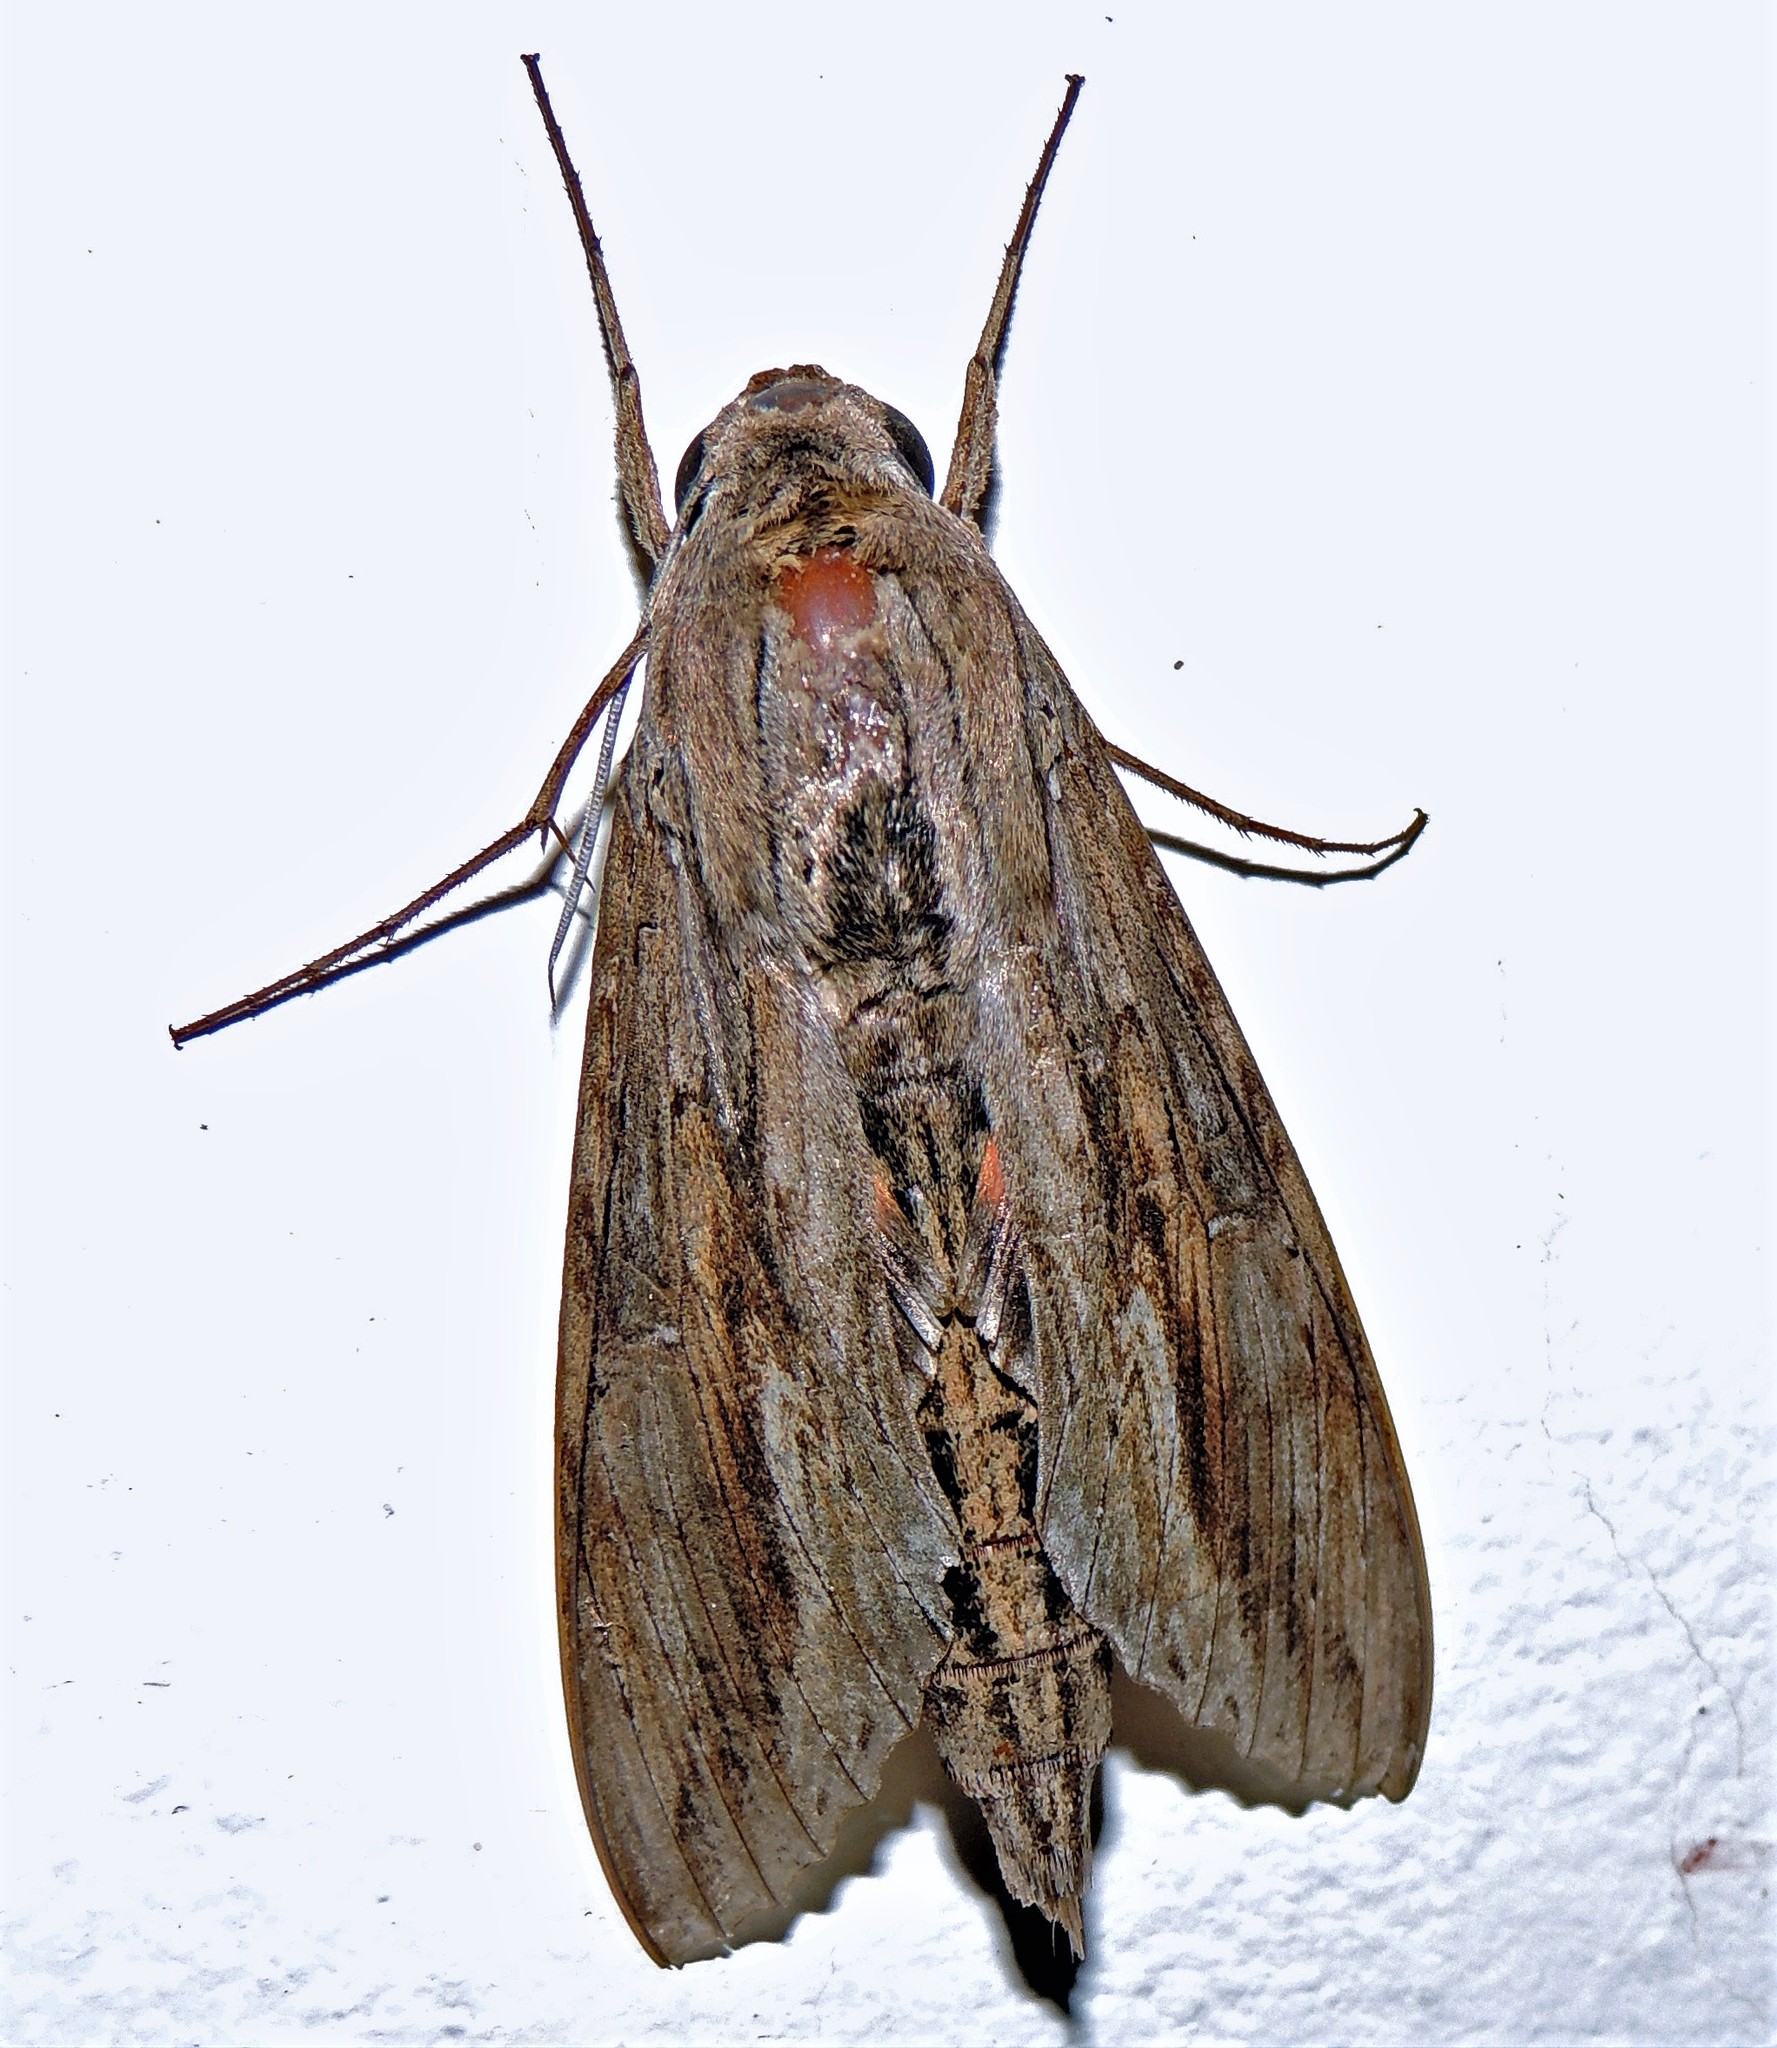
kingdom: Animalia
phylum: Arthropoda
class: Insecta
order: Lepidoptera
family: Sphingidae
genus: Erinnyis
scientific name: Erinnyis ello
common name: Ello sphinx
